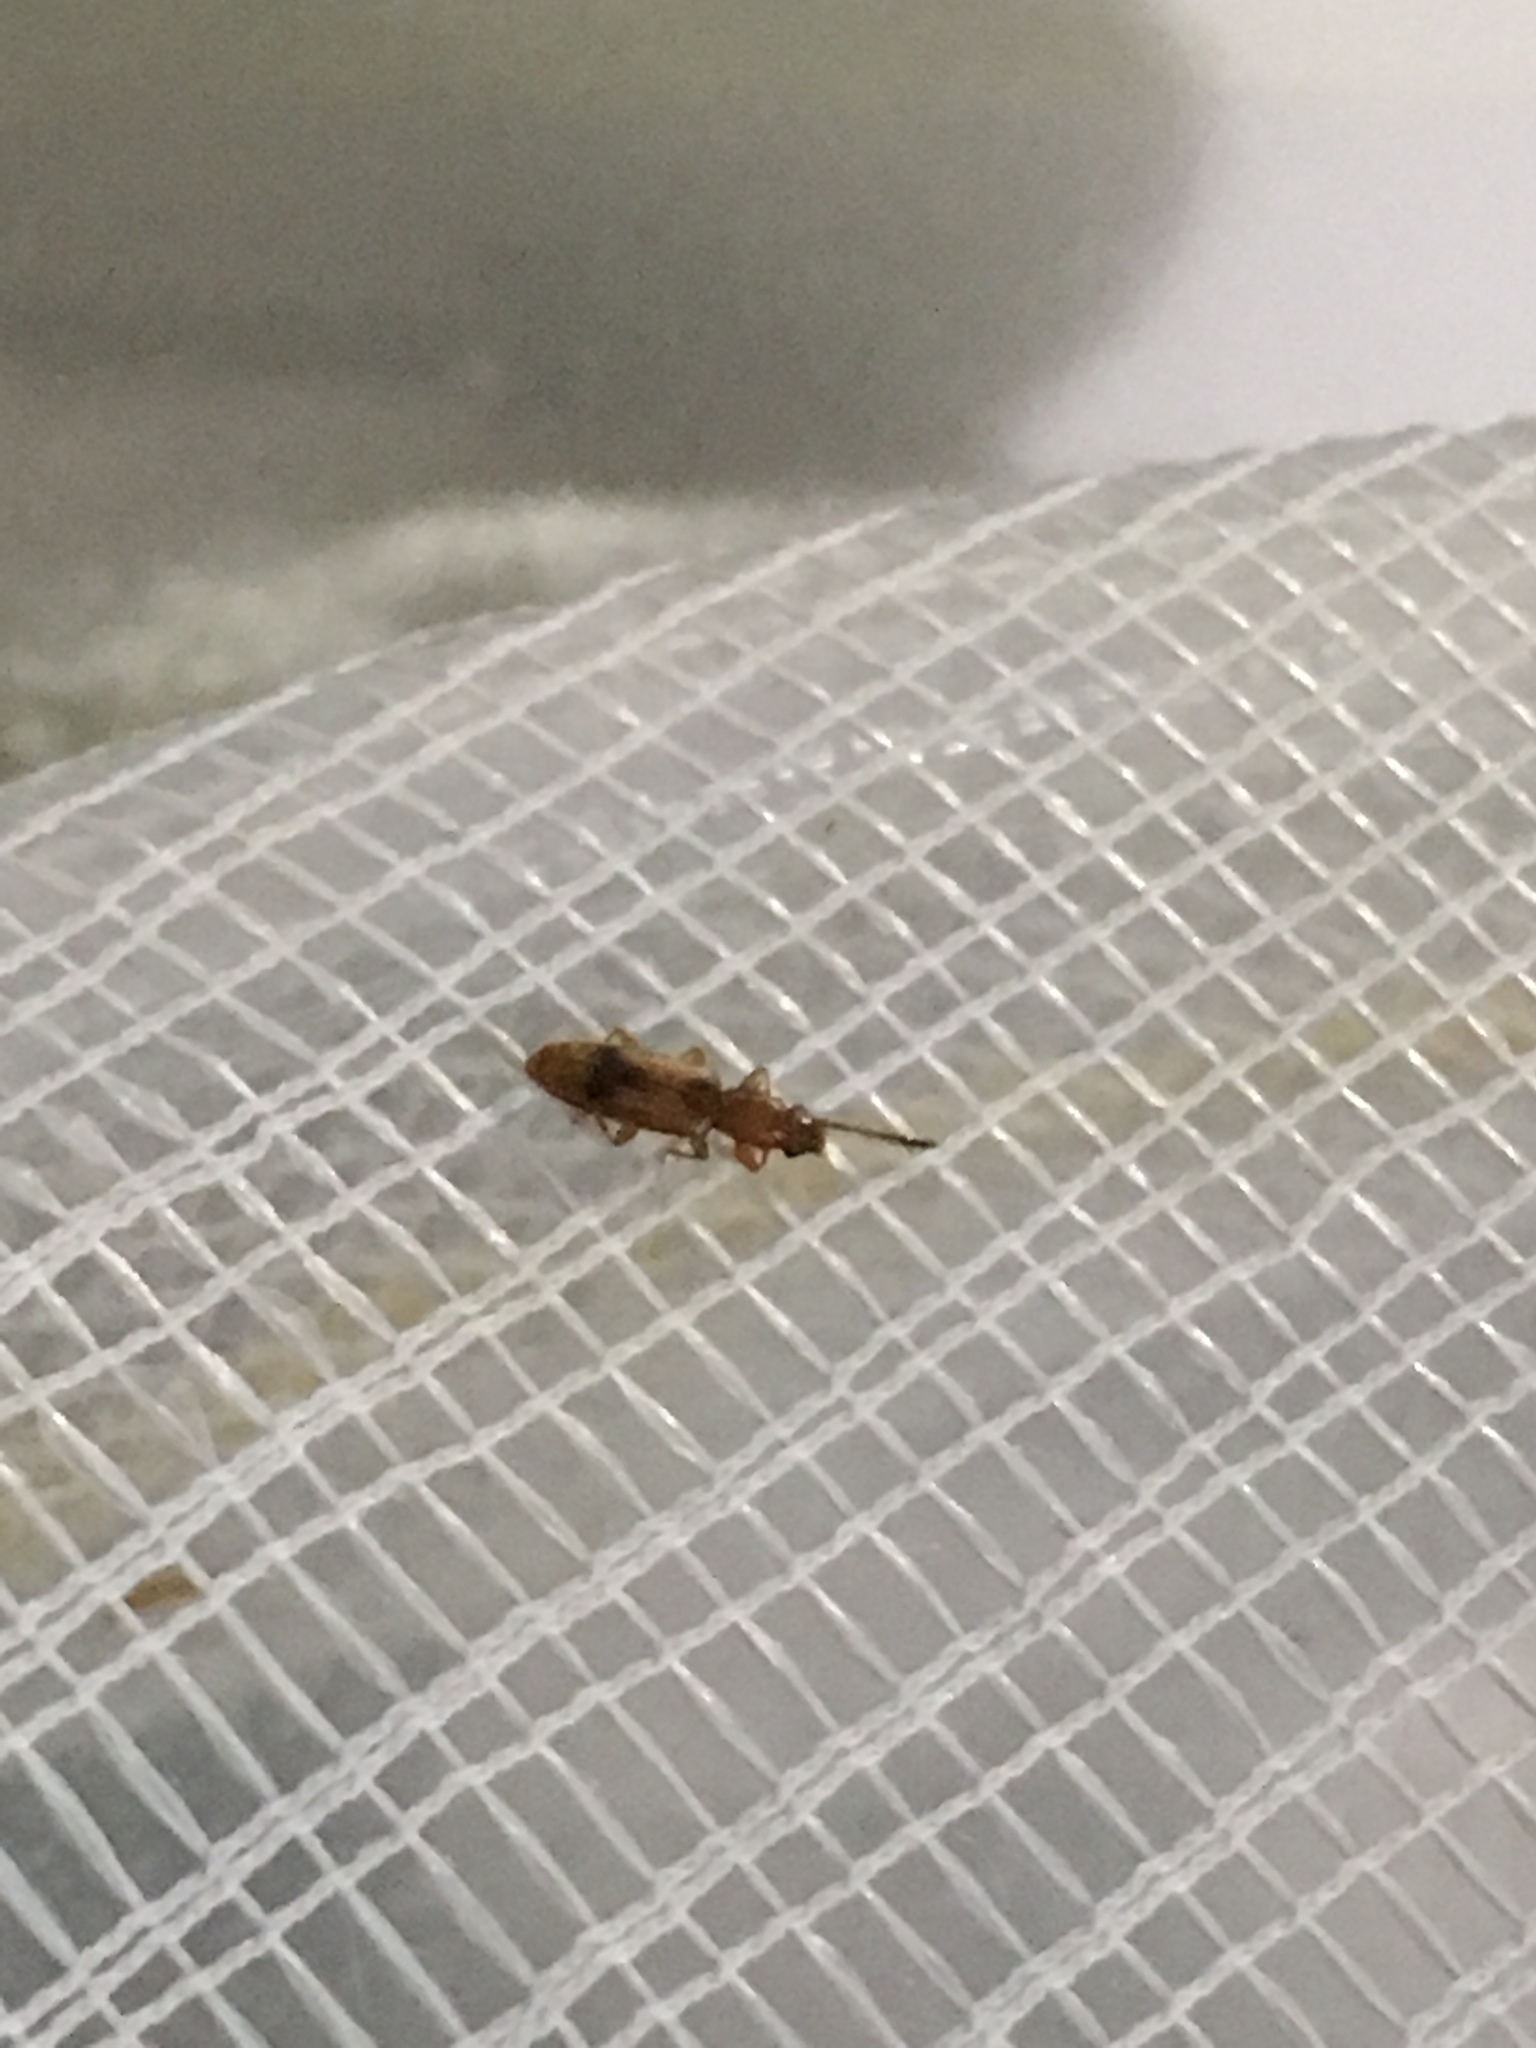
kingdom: Animalia
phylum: Arthropoda
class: Insecta
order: Coleoptera
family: Silvanidae
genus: Cryptamorpha
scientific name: Cryptamorpha desjardinsi
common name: Cryptamorpha
